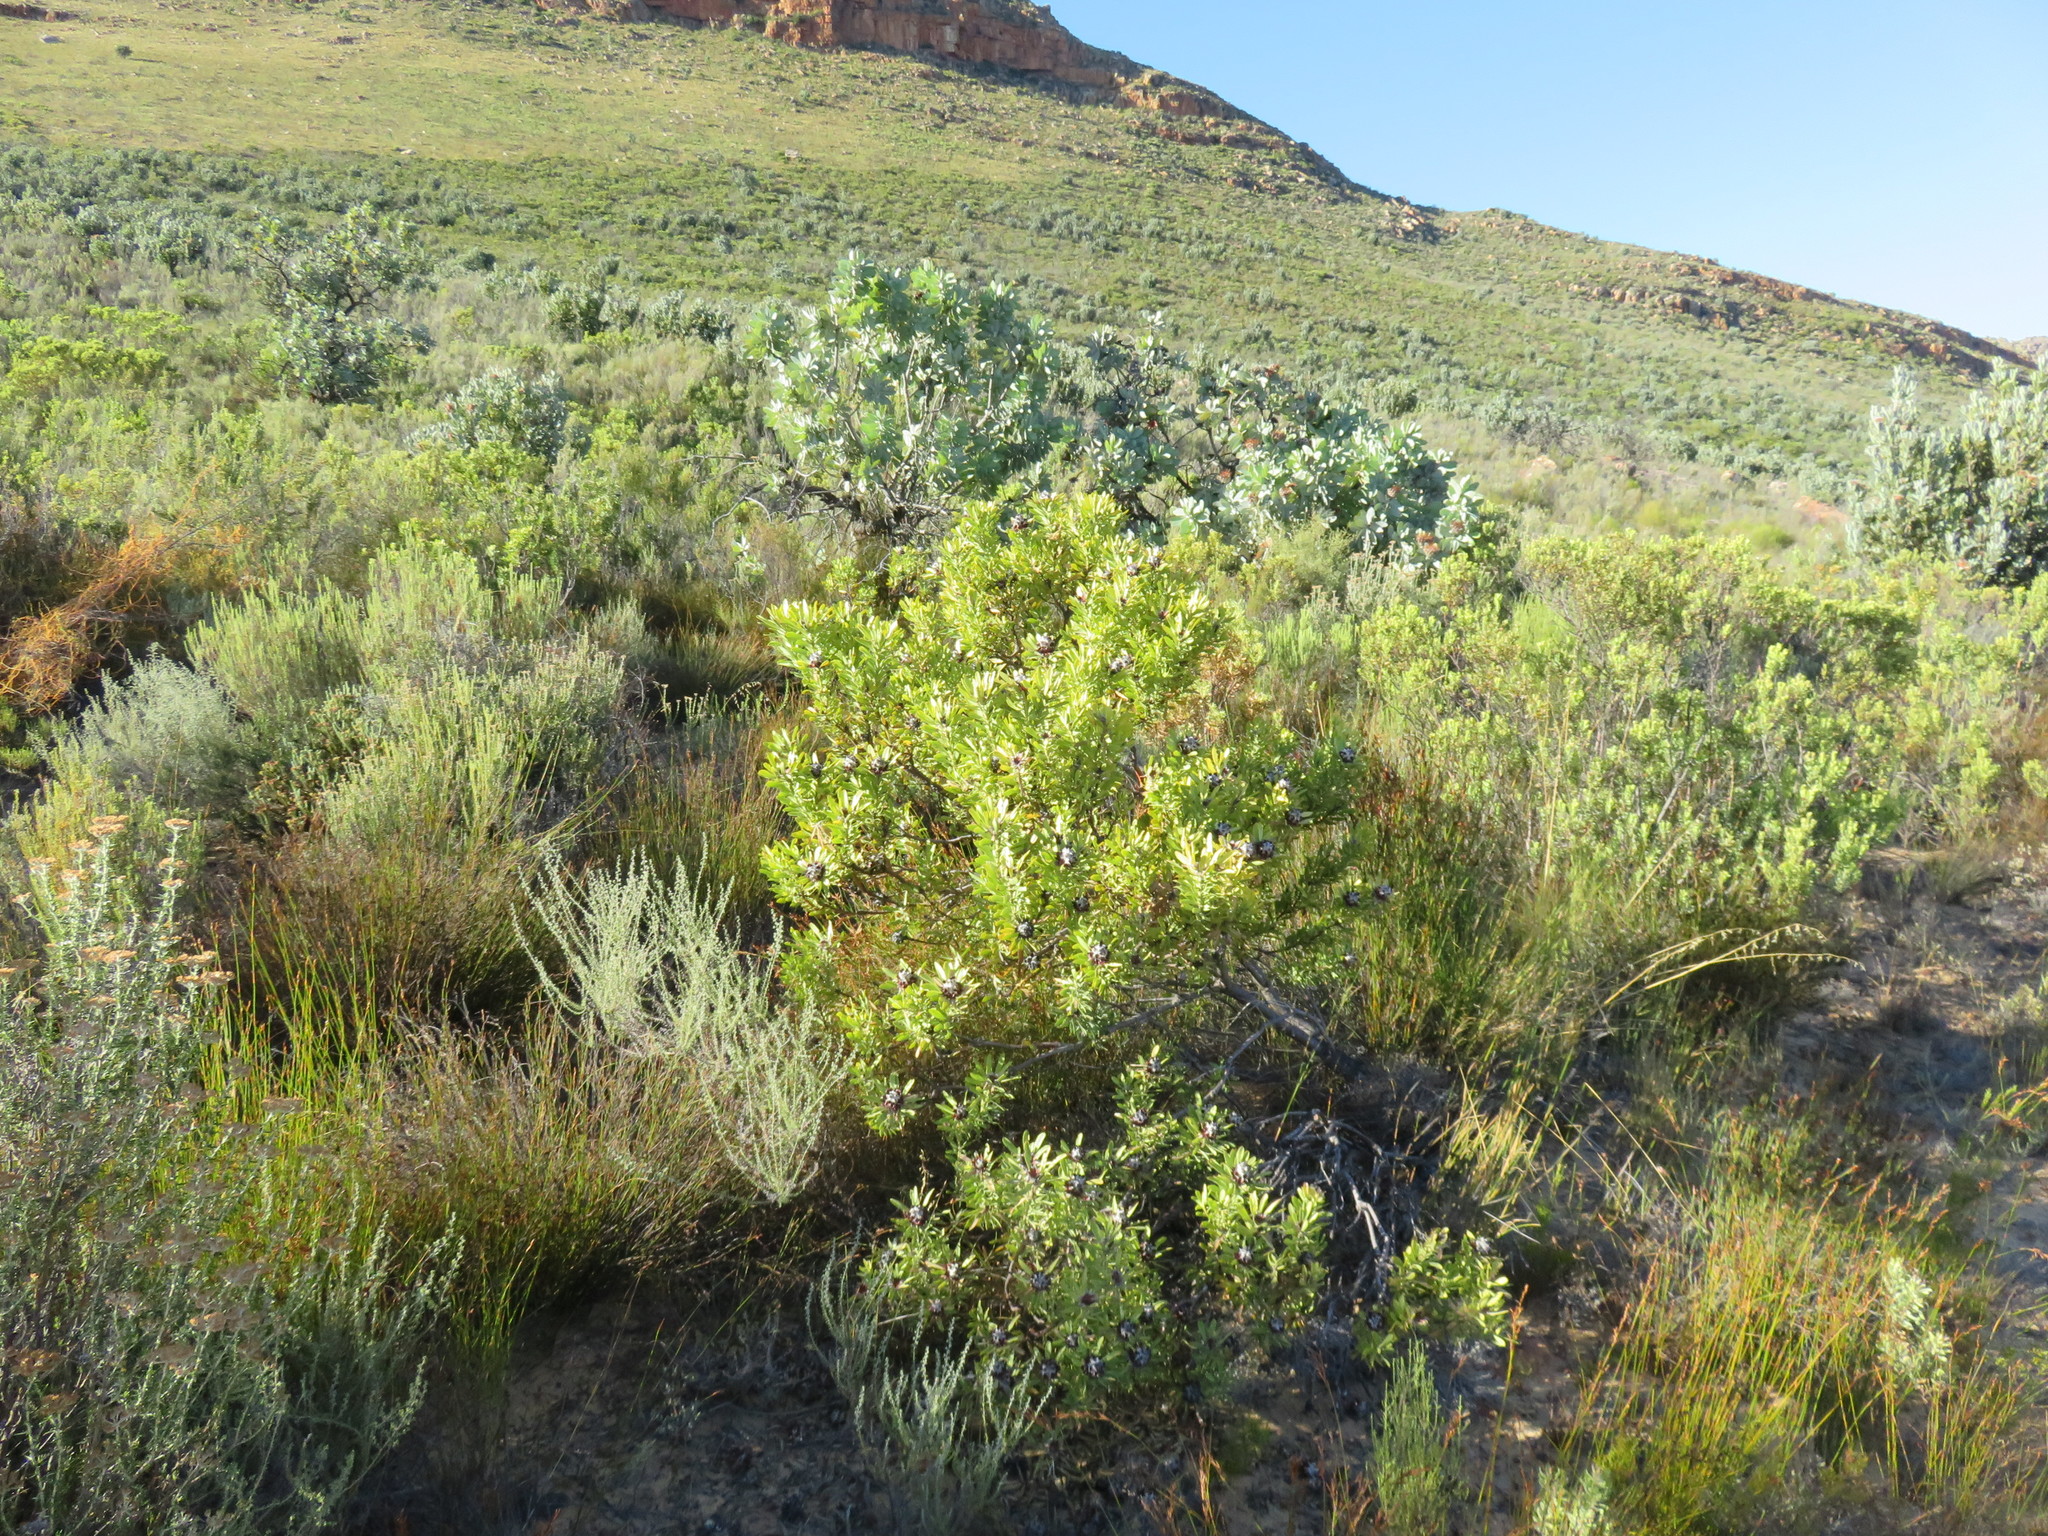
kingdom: Plantae
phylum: Tracheophyta
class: Magnoliopsida
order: Proteales
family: Proteaceae
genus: Leucadendron
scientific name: Leucadendron pubescens
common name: Grey conebush
